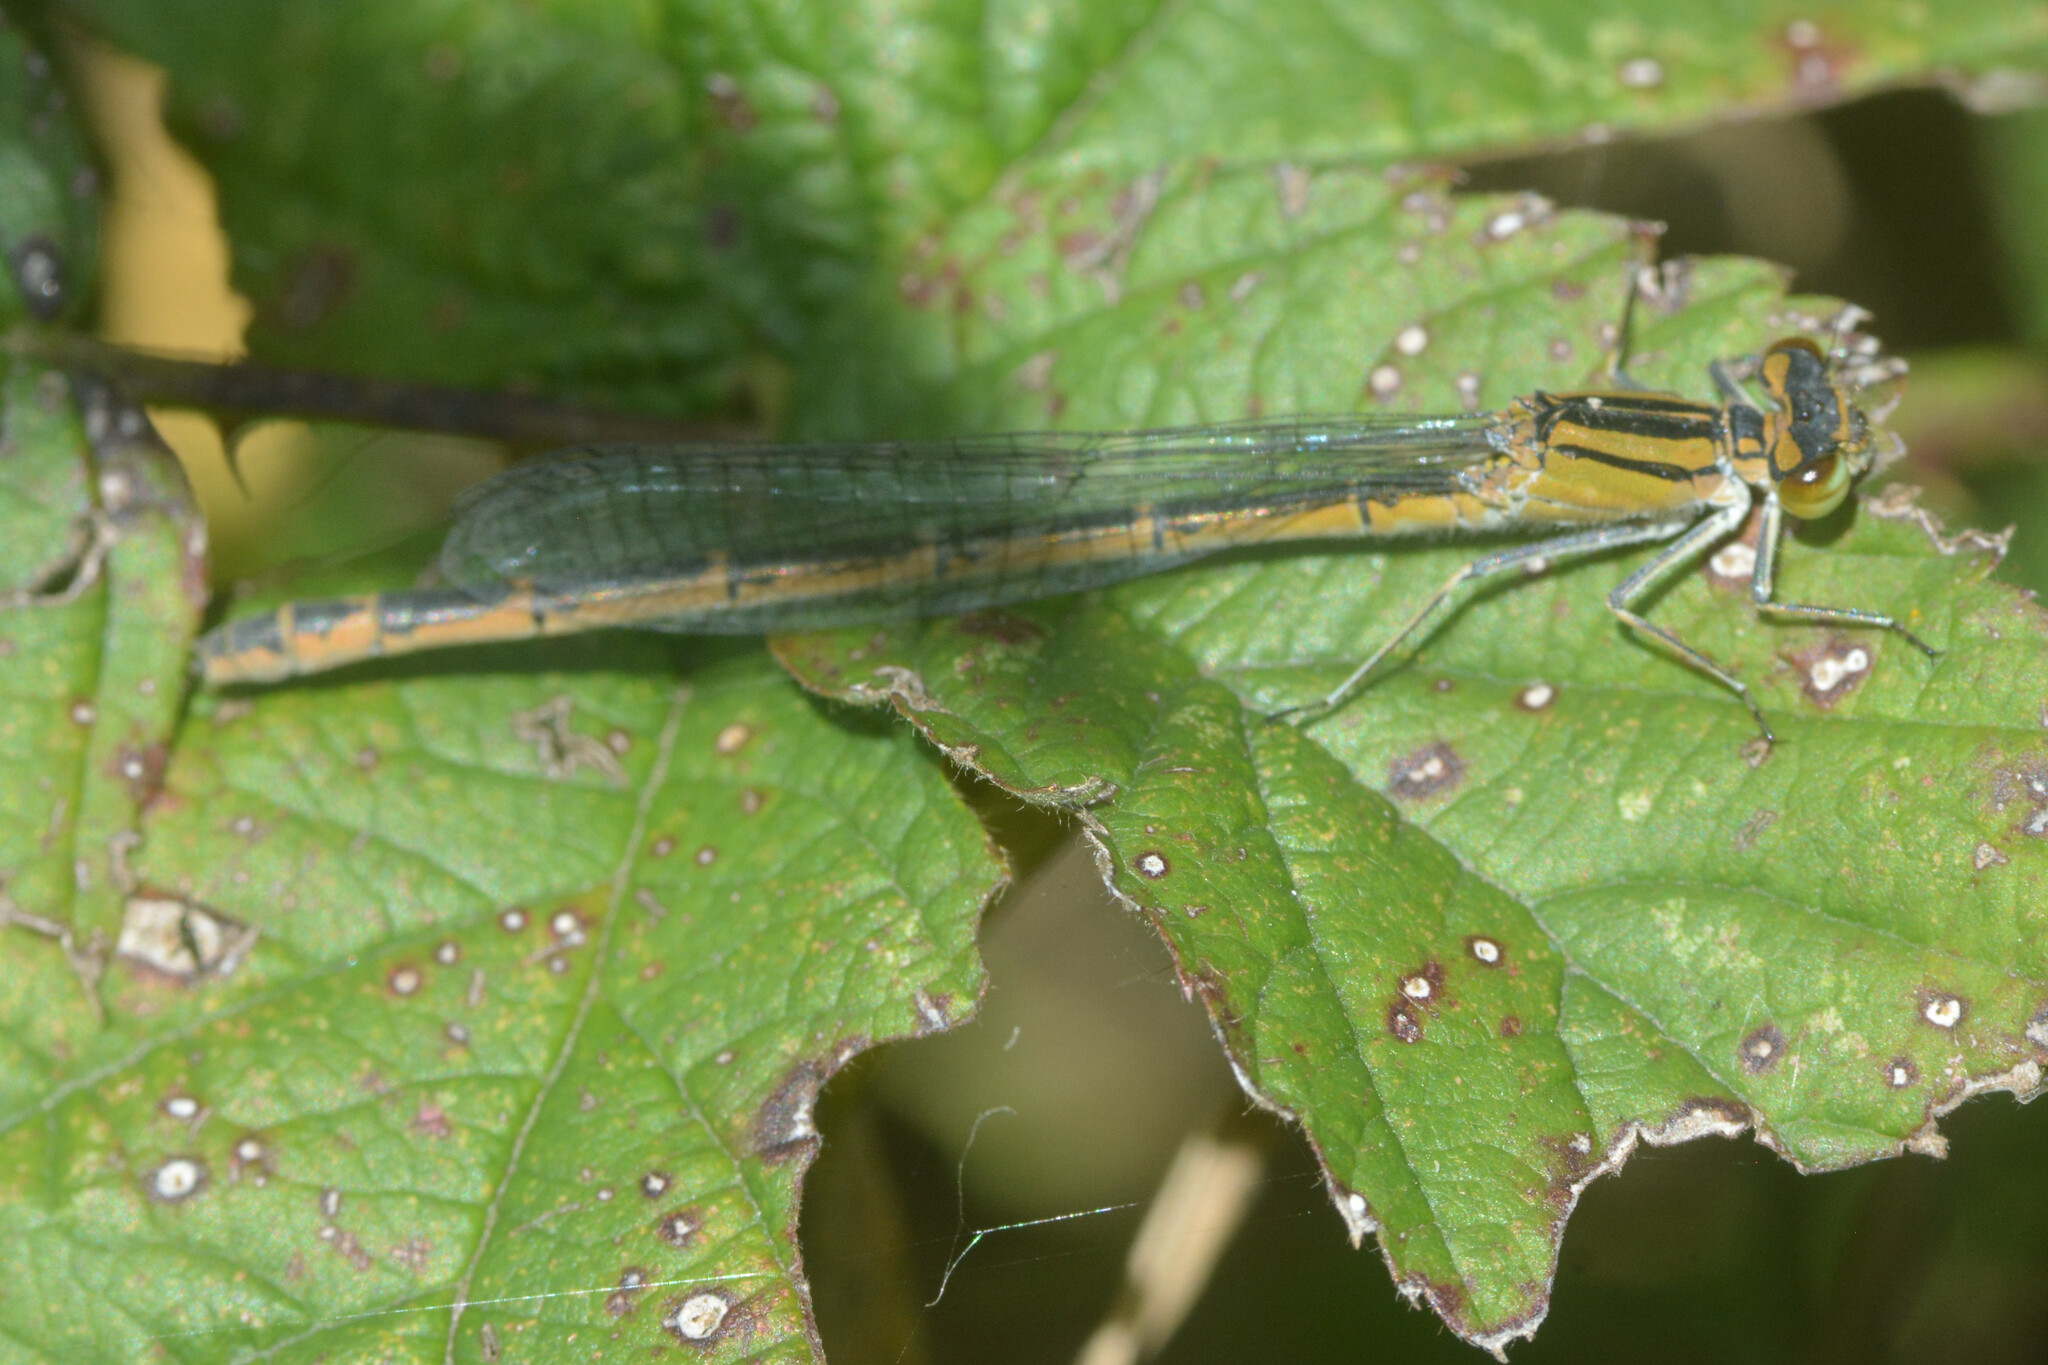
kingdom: Animalia
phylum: Arthropoda
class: Insecta
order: Odonata
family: Coenagrionidae
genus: Enallagma
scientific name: Enallagma cyathigerum
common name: Common blue damselfly
